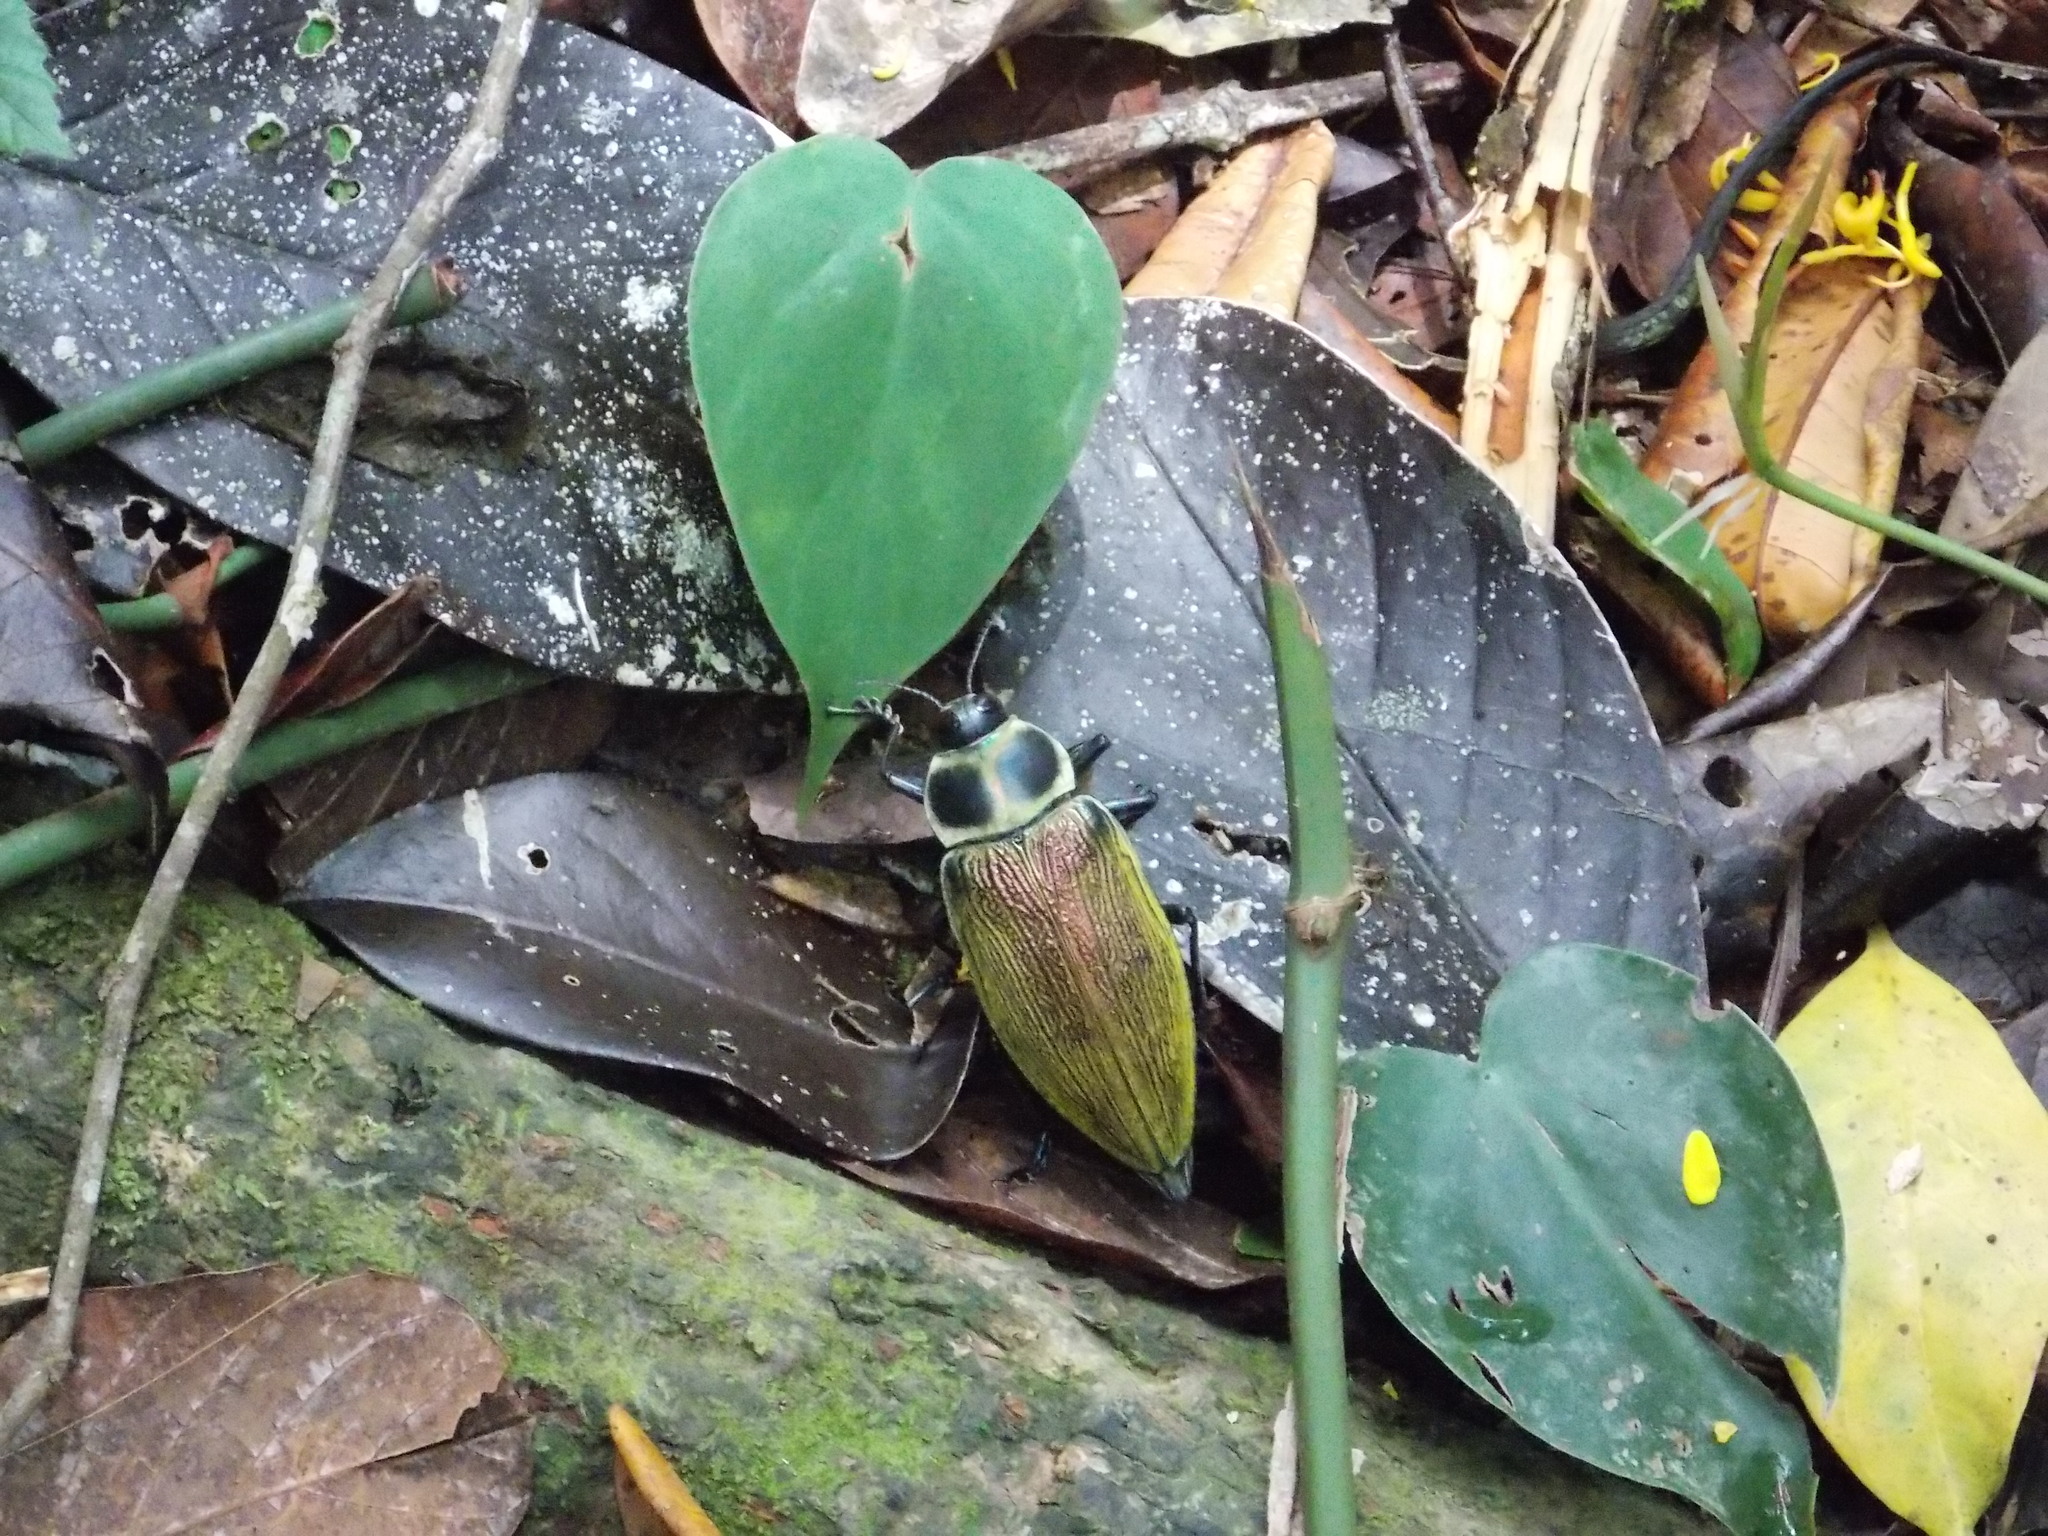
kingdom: Animalia
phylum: Arthropoda
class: Insecta
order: Coleoptera
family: Buprestidae
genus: Euchroma
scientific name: Euchroma giganteum
